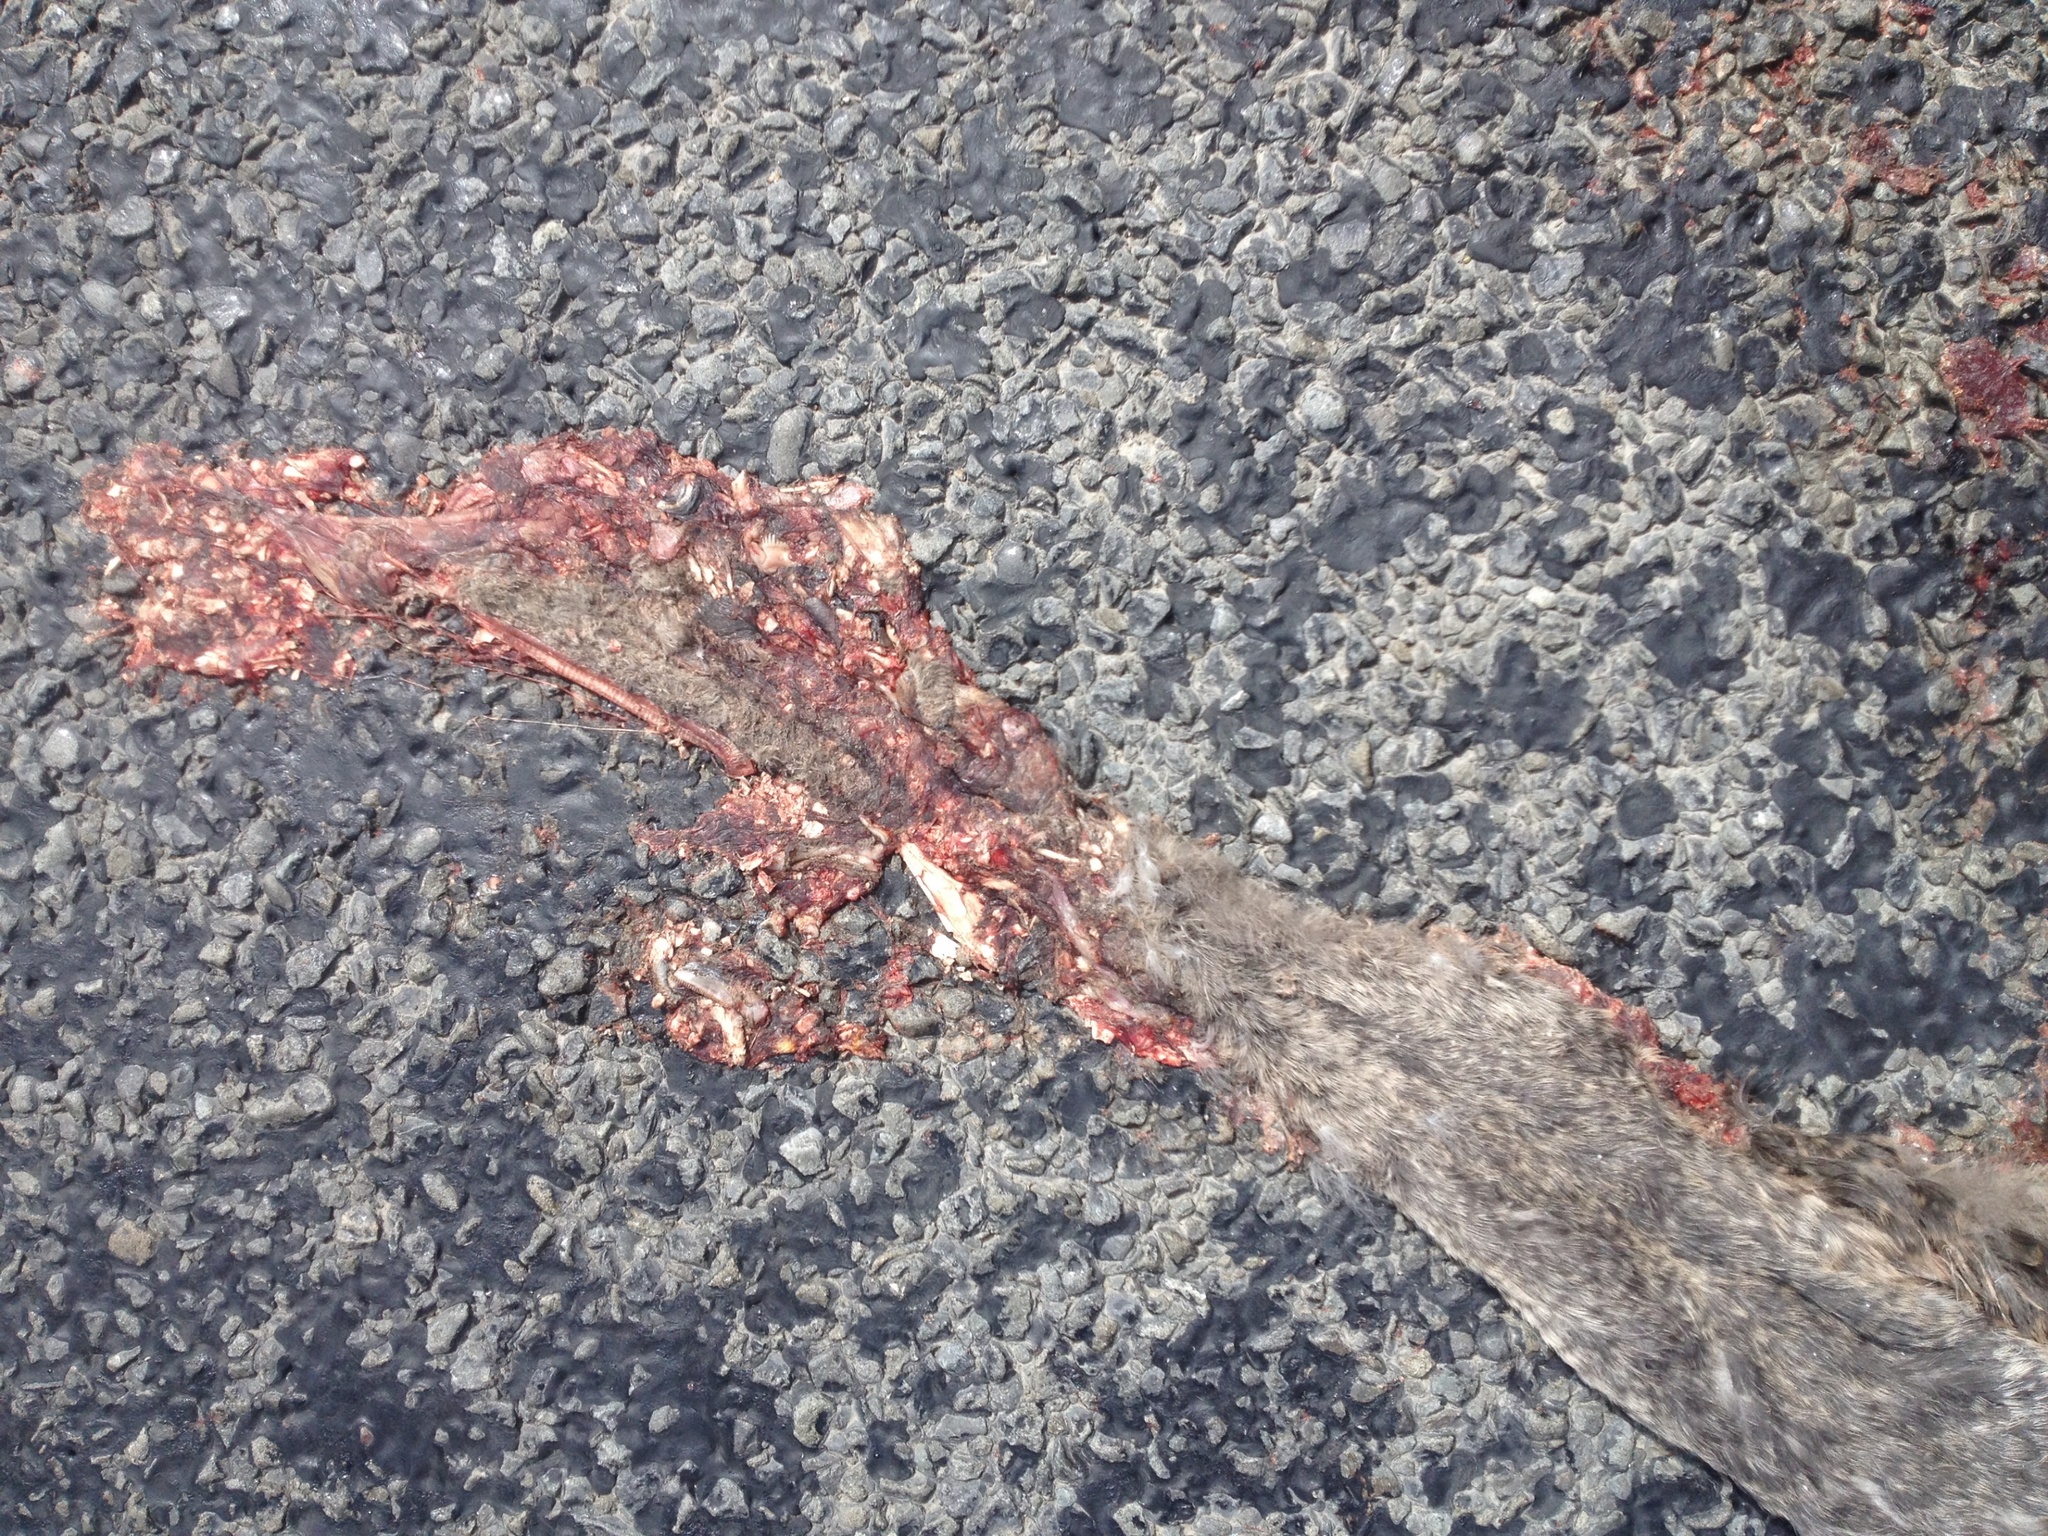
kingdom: Animalia
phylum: Chordata
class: Aves
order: Anseriformes
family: Anatidae
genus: Cygnus
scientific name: Cygnus atratus
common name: Black swan
